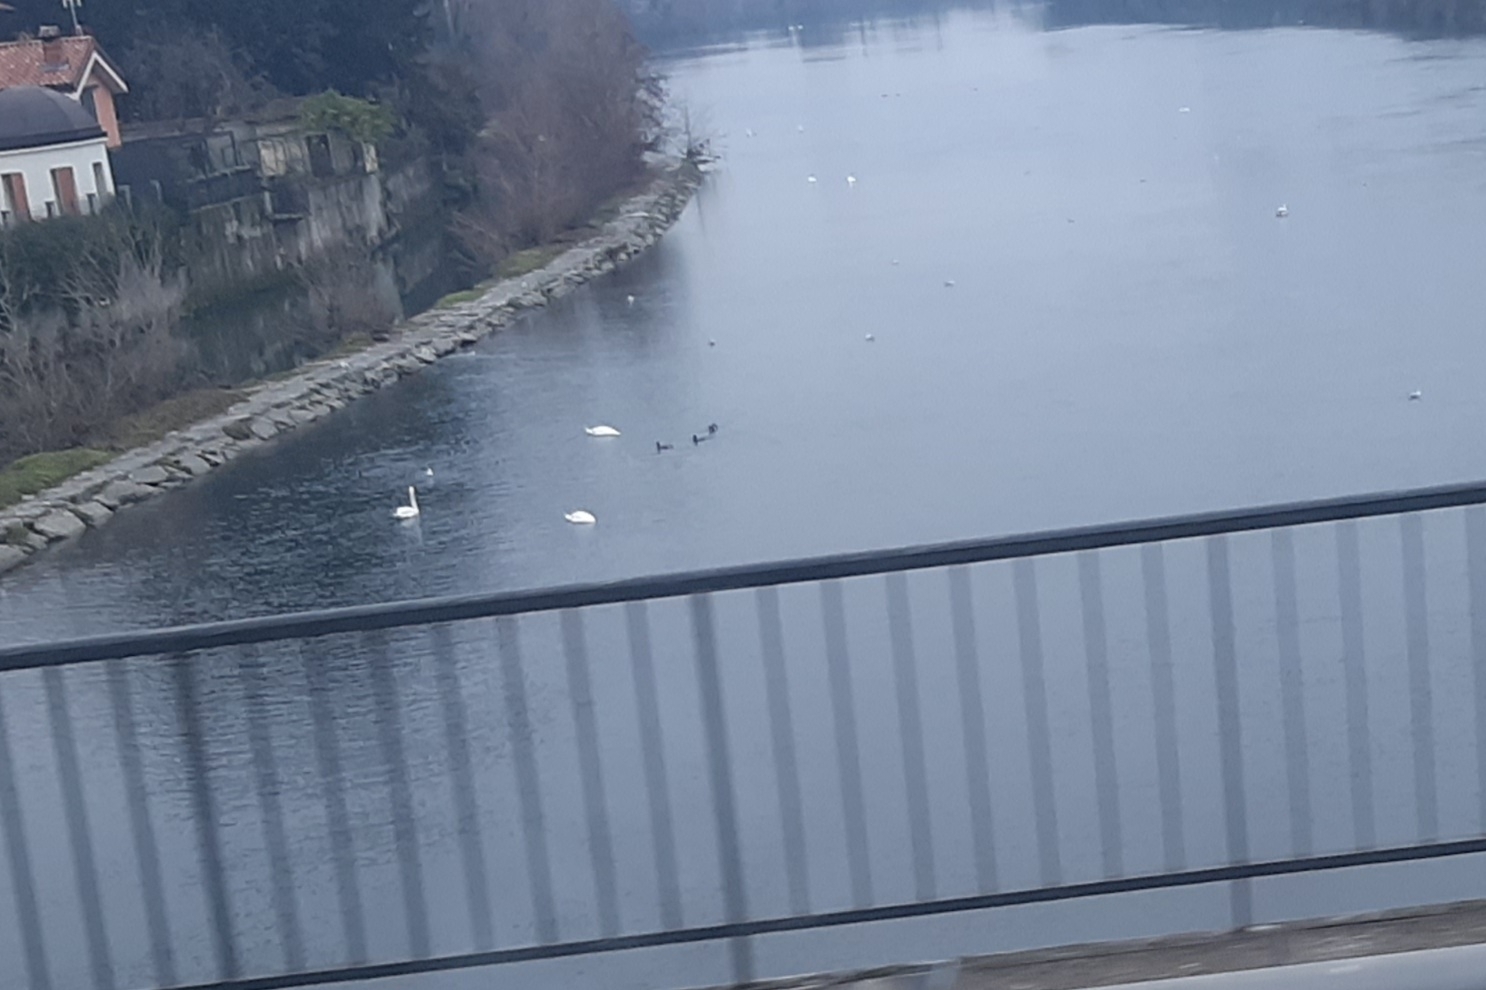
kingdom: Animalia
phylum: Chordata
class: Aves
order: Anseriformes
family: Anatidae
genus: Cygnus
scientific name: Cygnus olor
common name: Mute swan
